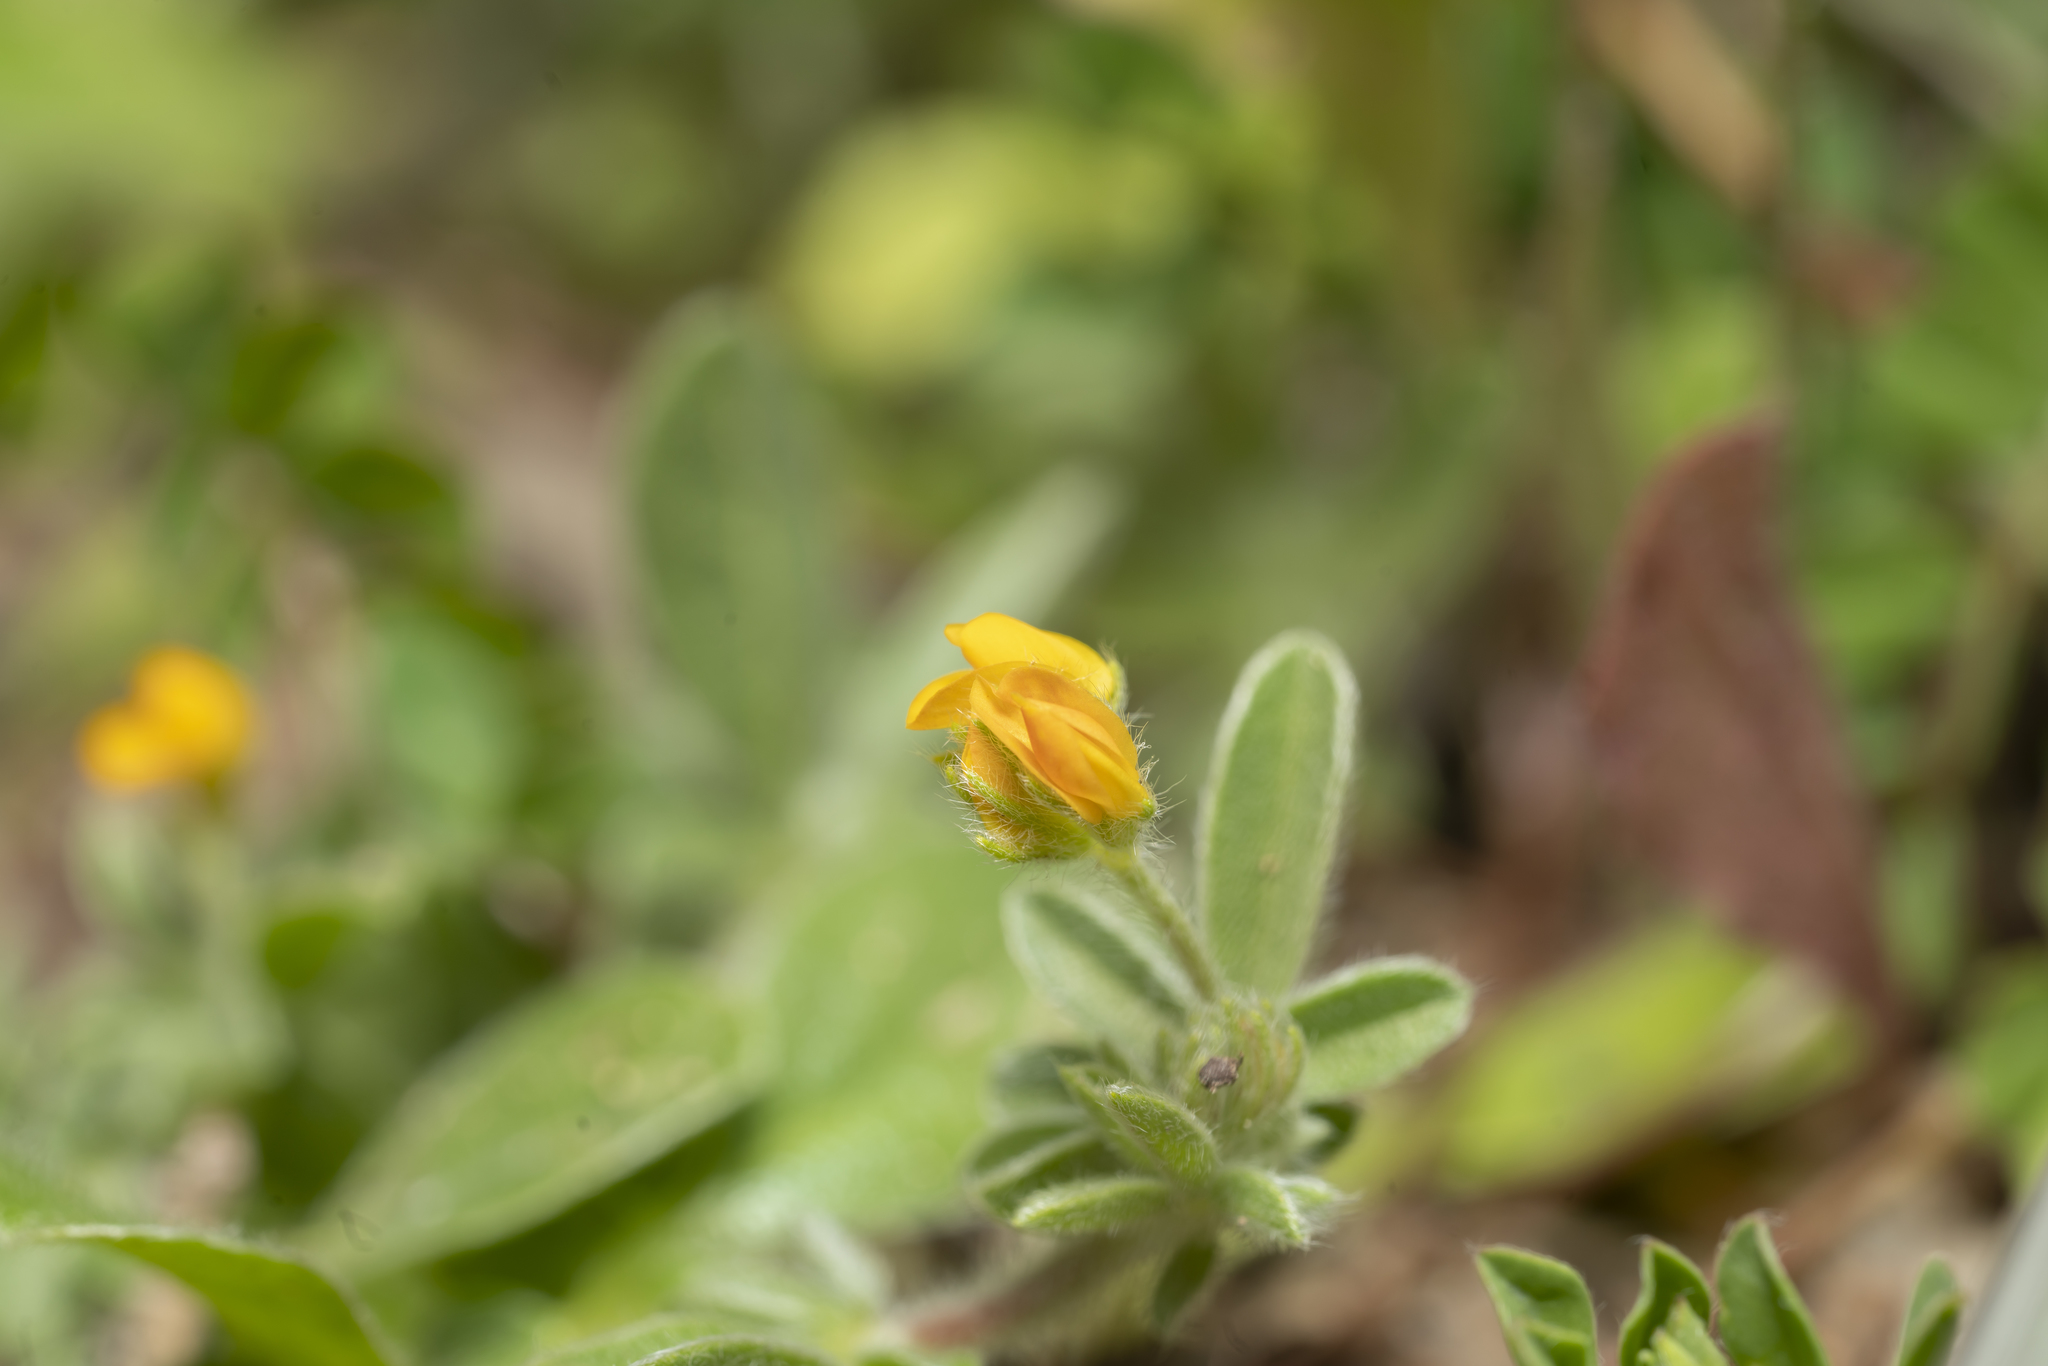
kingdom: Plantae
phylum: Tracheophyta
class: Magnoliopsida
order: Fabales
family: Fabaceae
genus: Anthyllis
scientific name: Anthyllis circinnata
